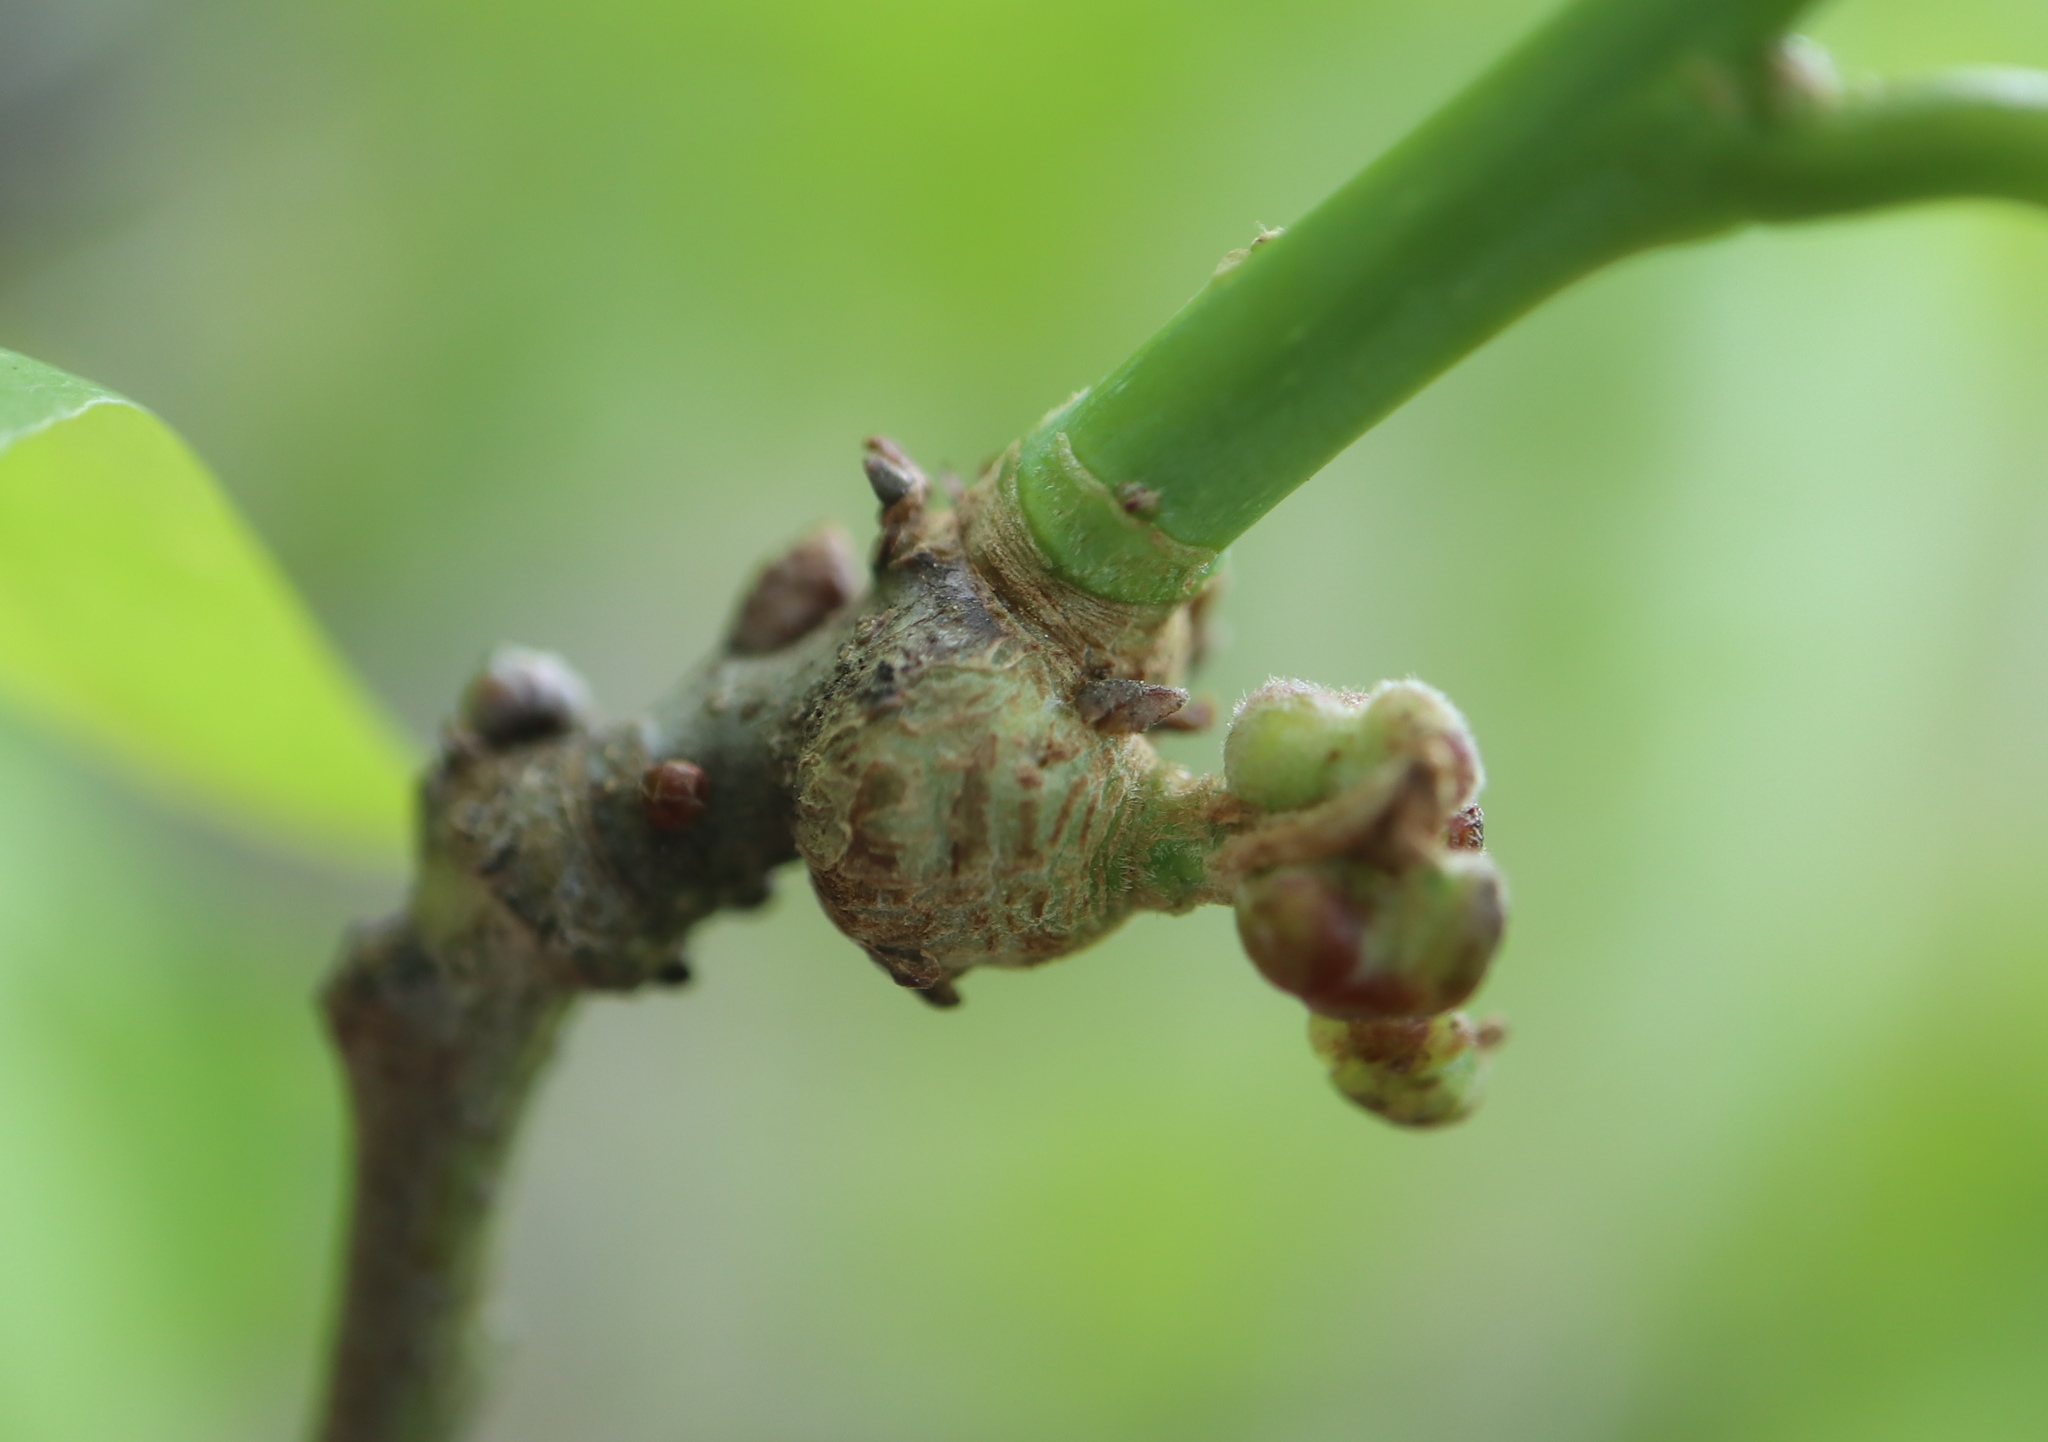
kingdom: Animalia
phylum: Arthropoda
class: Insecta
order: Hymenoptera
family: Cynipidae
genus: Loxaulus
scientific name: Loxaulus
